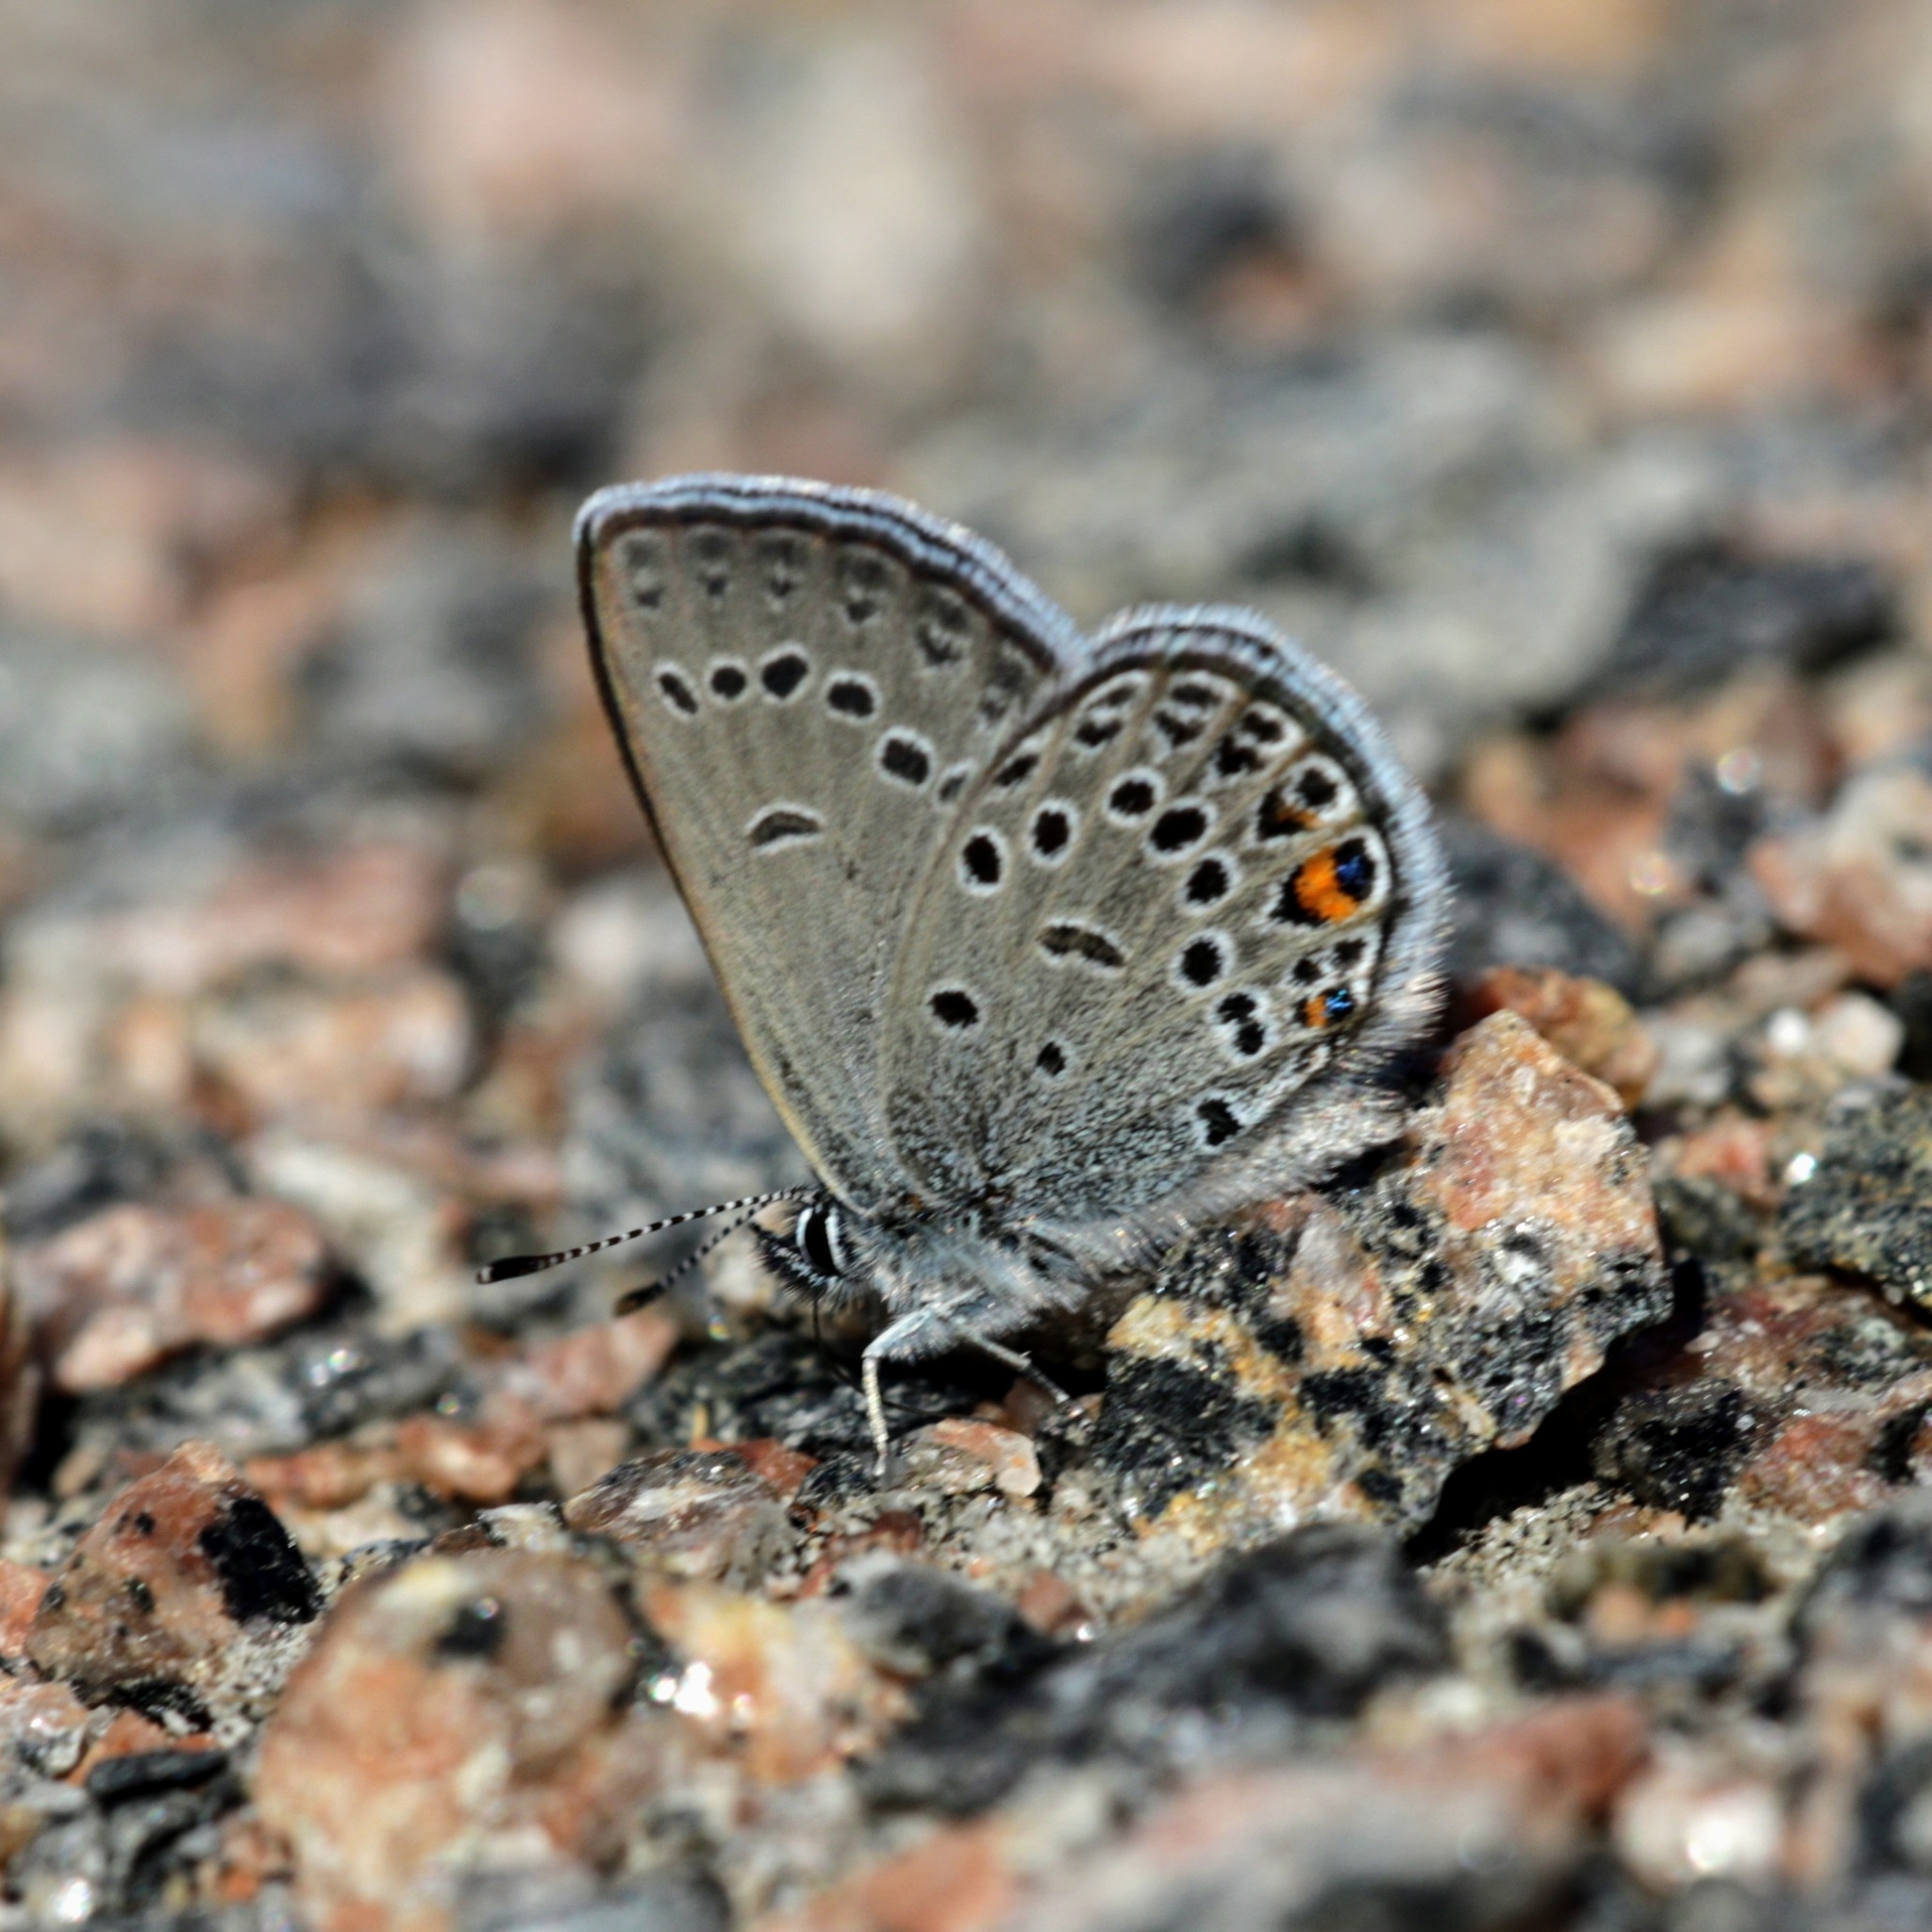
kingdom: Animalia
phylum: Arthropoda
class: Insecta
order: Lepidoptera
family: Lycaenidae
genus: Vacciniina
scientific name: Vacciniina optilete
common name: Cranberry blue
